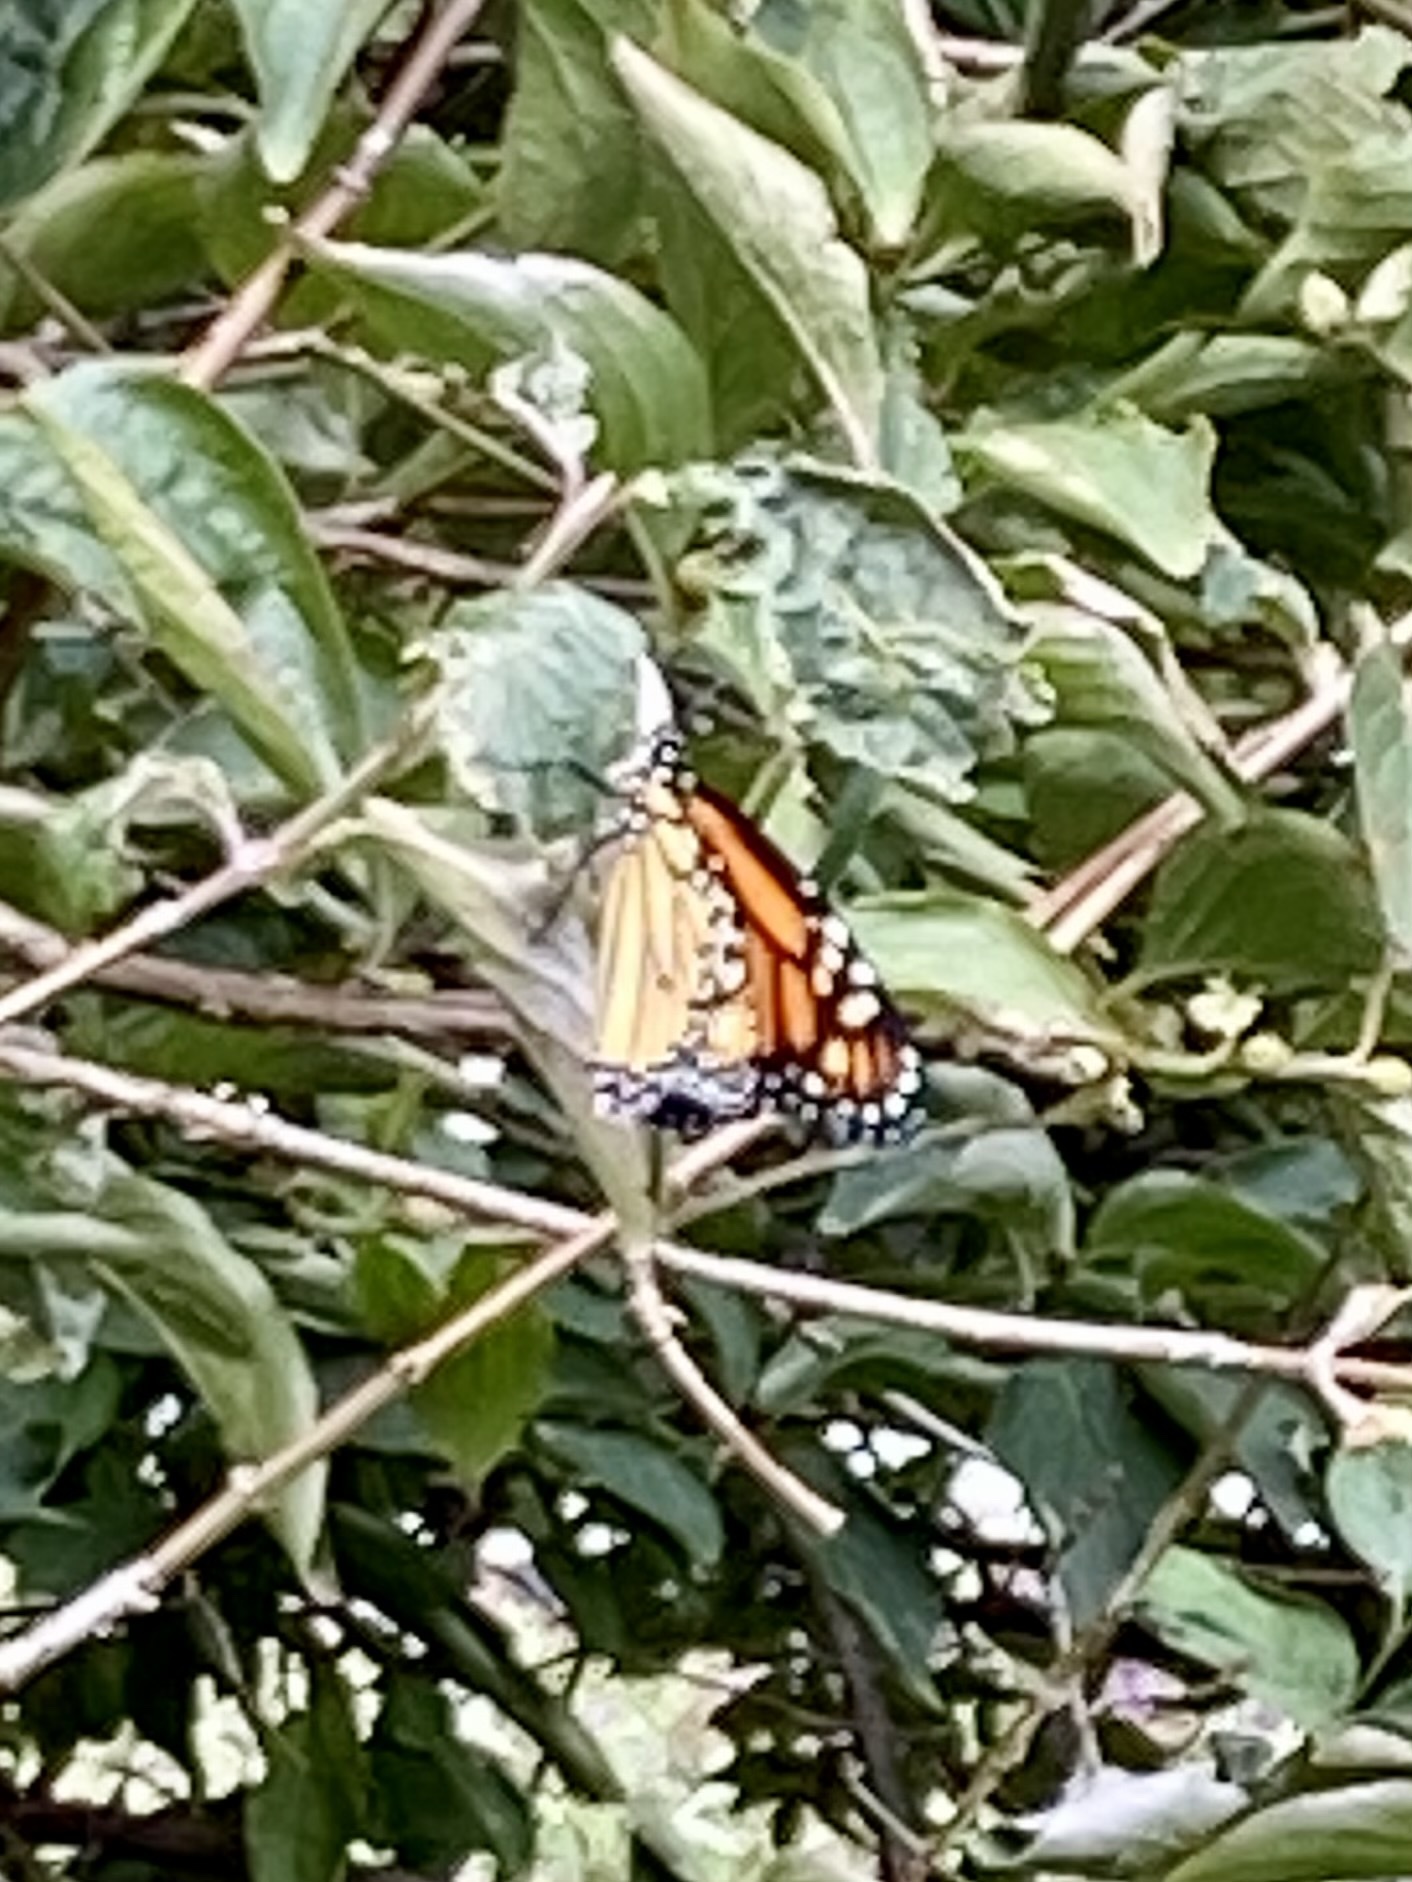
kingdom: Animalia
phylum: Arthropoda
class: Insecta
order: Lepidoptera
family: Nymphalidae
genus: Danaus
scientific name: Danaus plexippus
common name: Monarch
